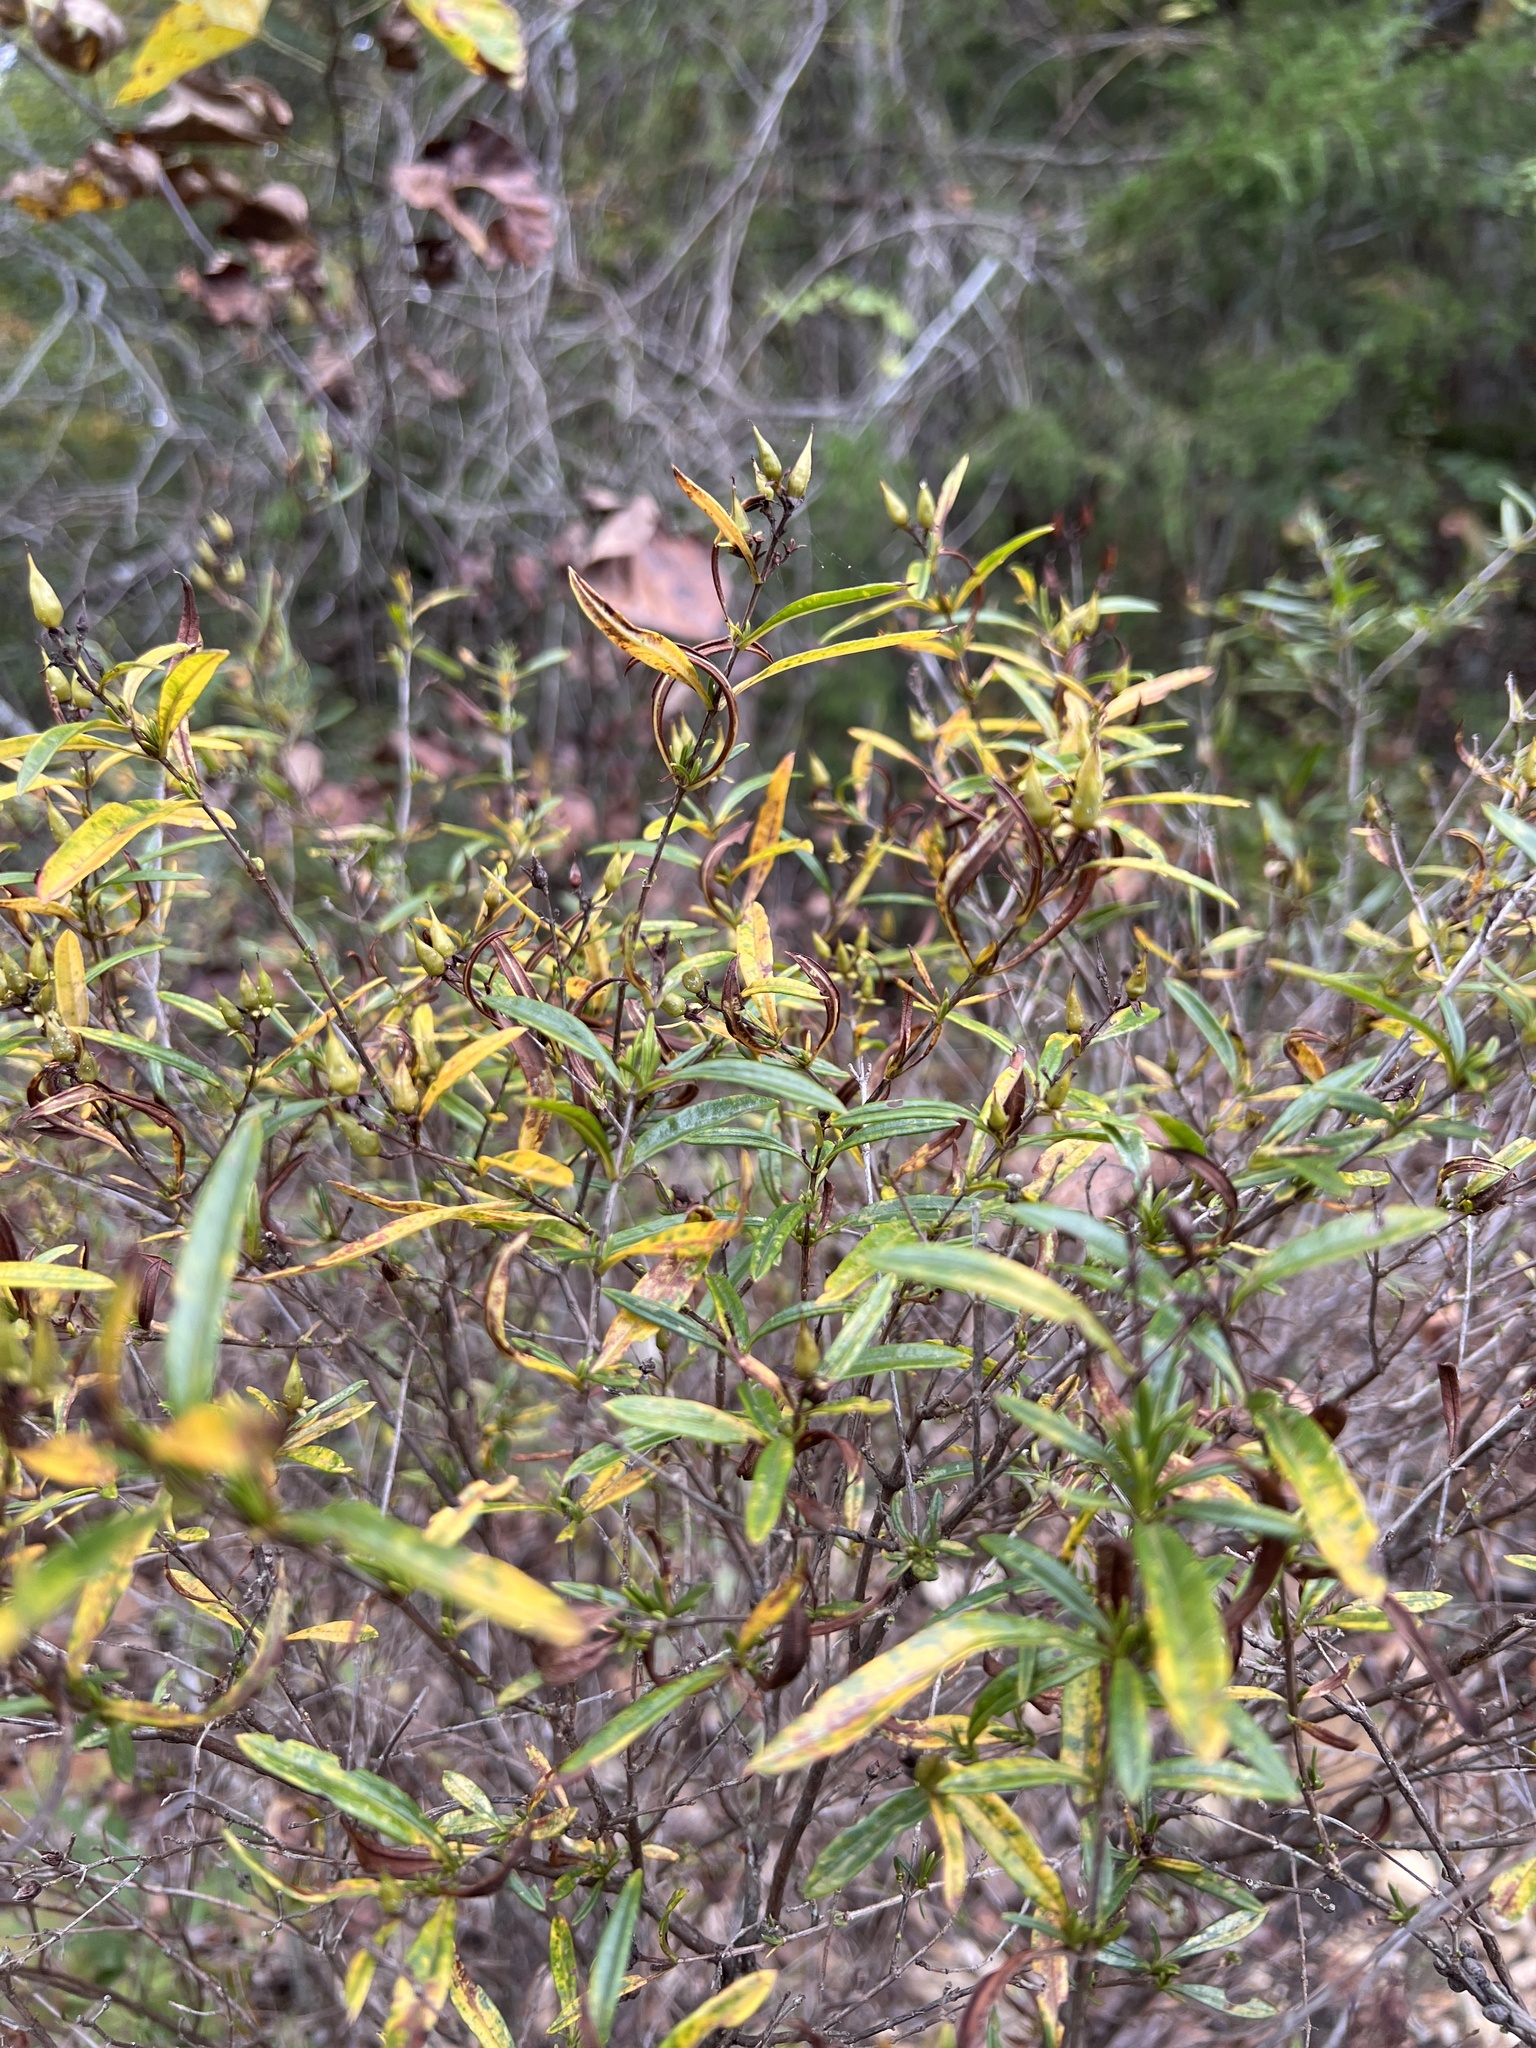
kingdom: Plantae
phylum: Tracheophyta
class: Magnoliopsida
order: Malpighiales
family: Hypericaceae
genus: Hypericum
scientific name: Hypericum prolificum
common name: Shrubby st. john's-wort
